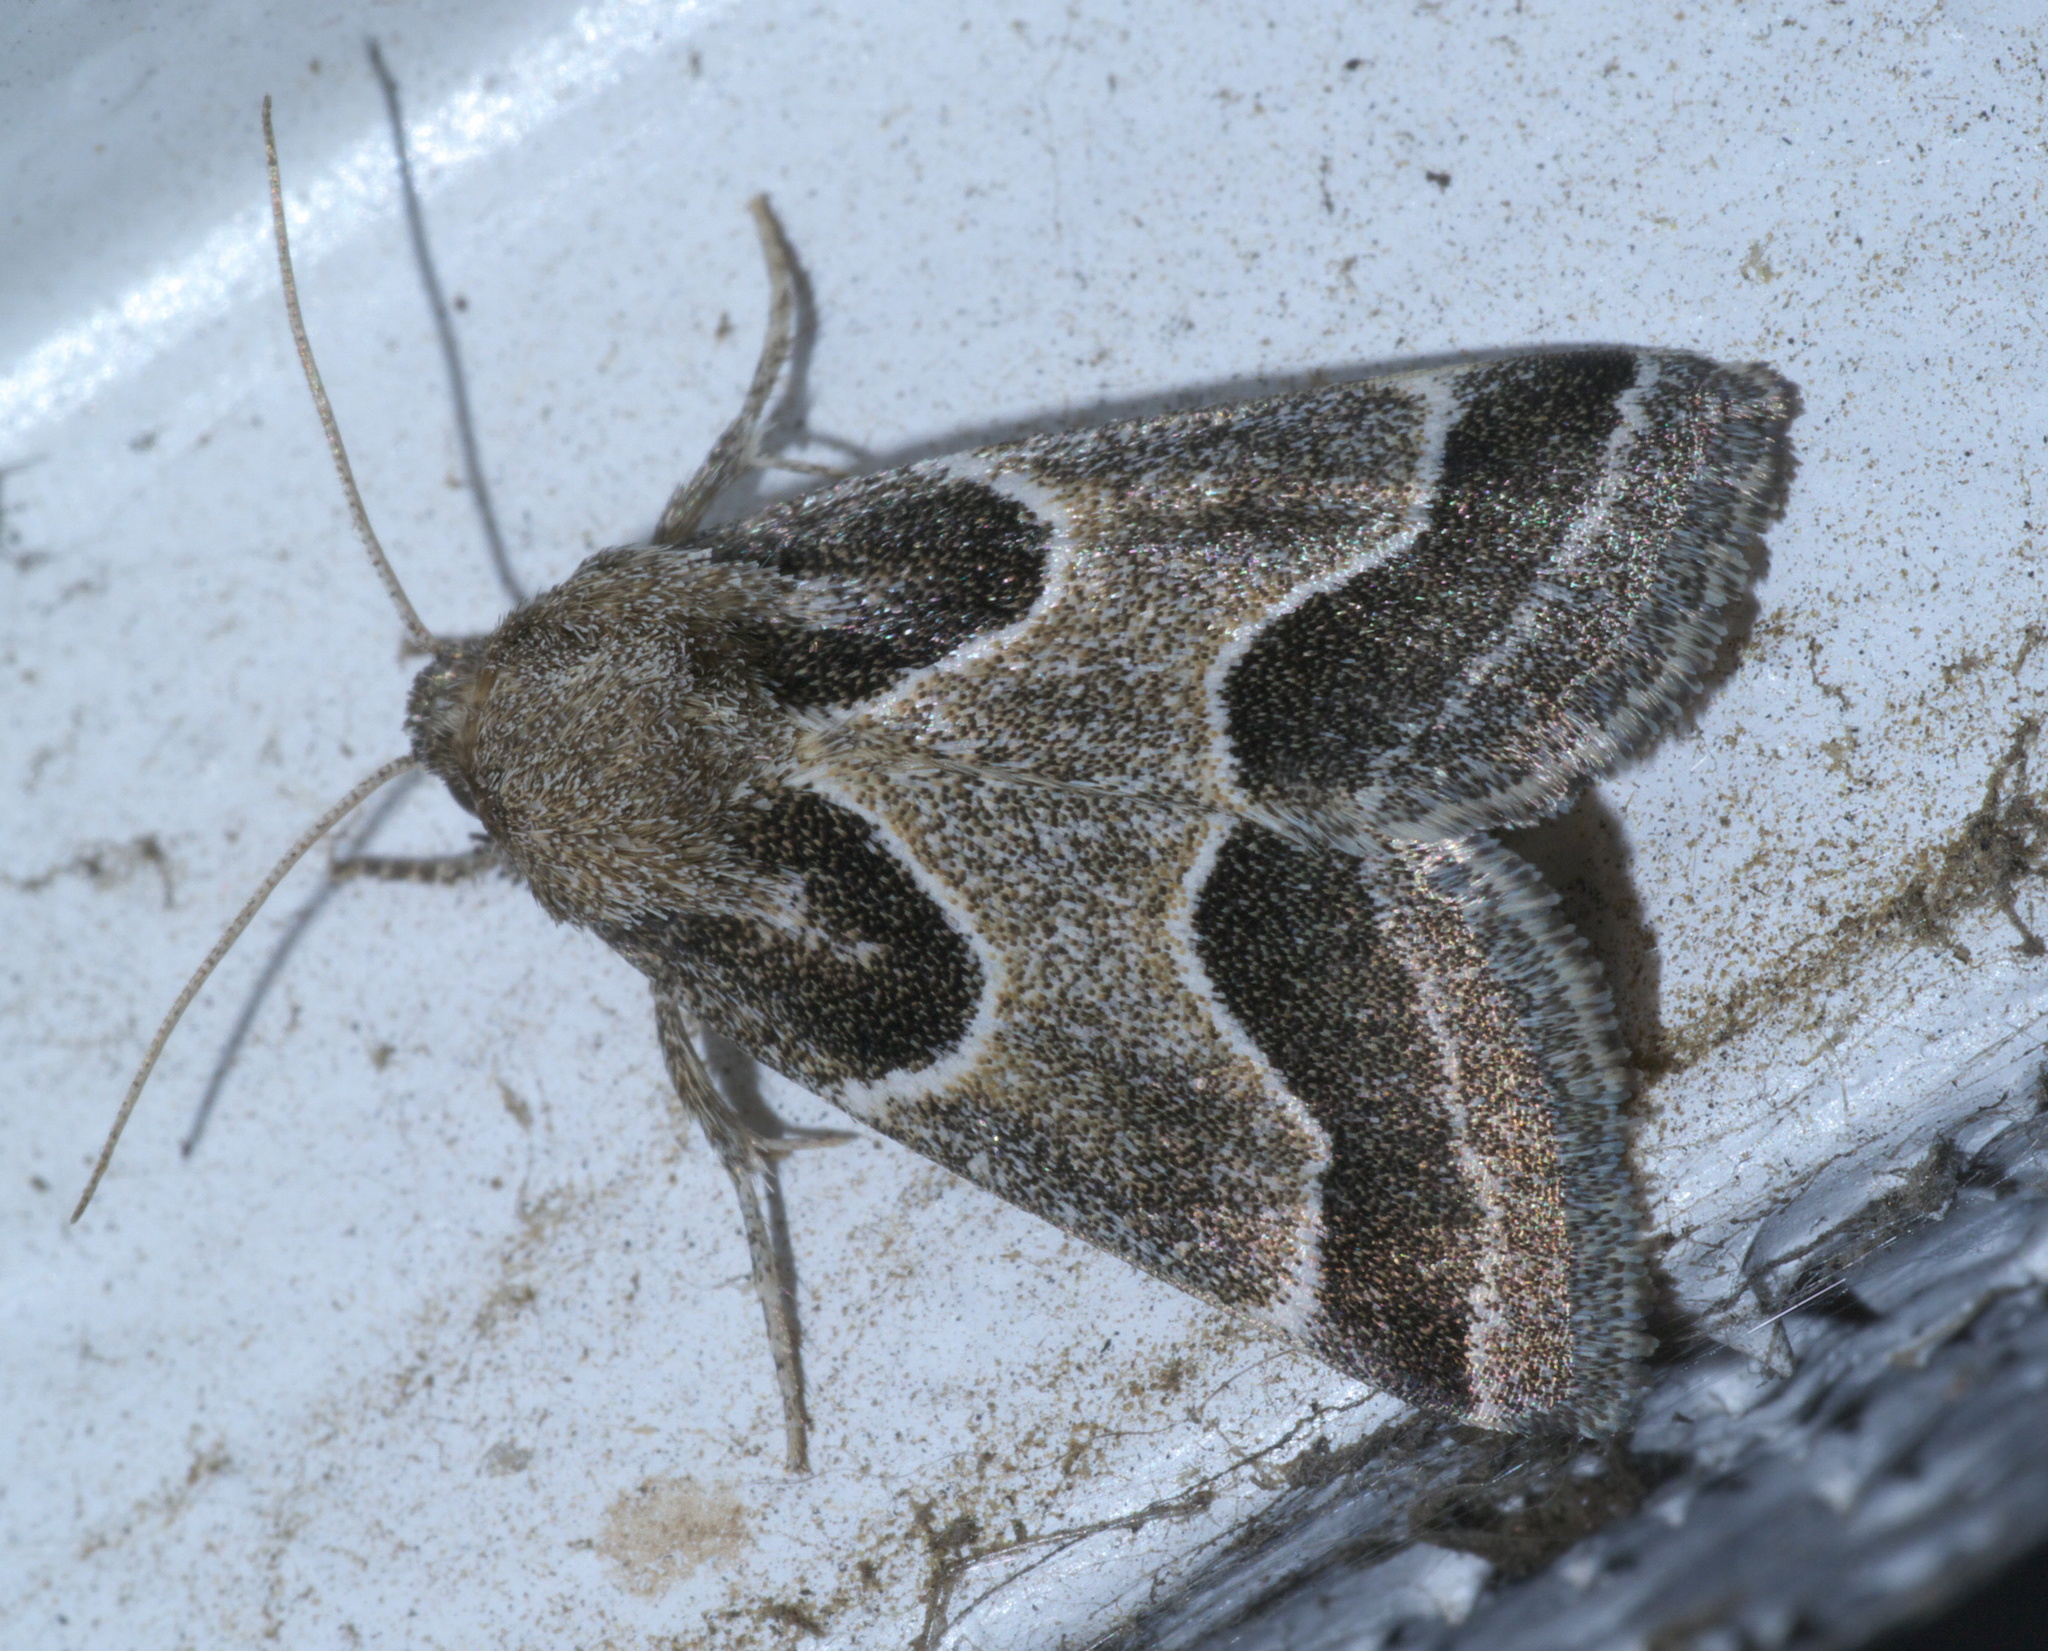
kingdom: Animalia
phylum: Arthropoda
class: Insecta
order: Lepidoptera
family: Noctuidae
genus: Schinia
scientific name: Schinia rivulosa
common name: Scarce meal-moth
